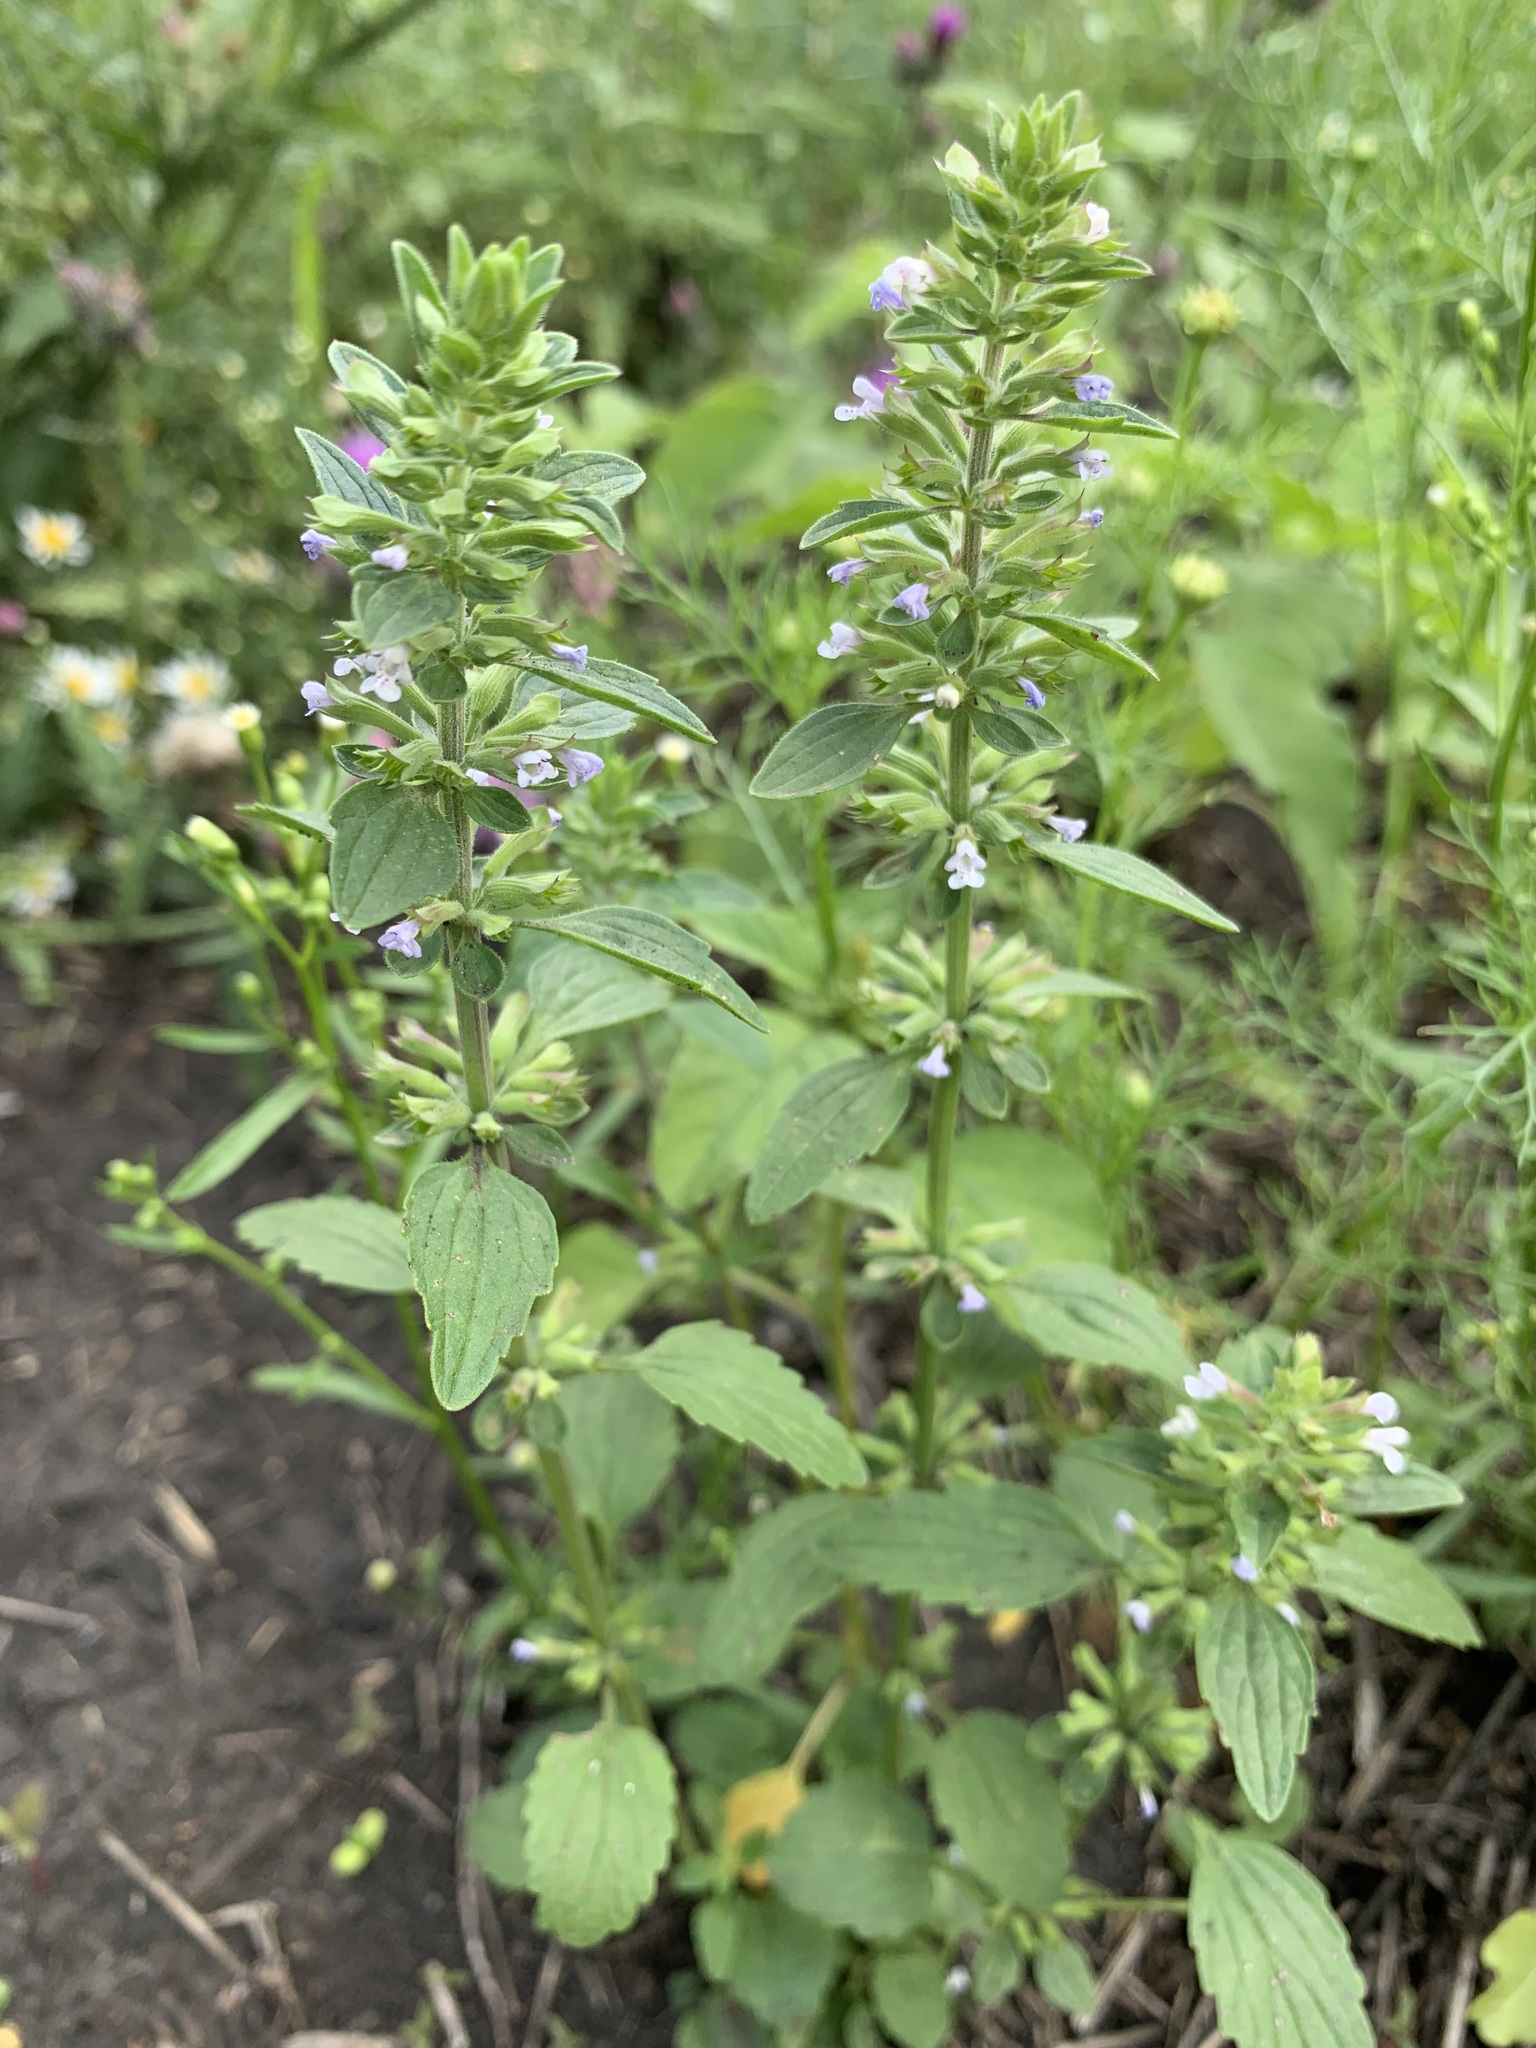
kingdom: Plantae
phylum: Tracheophyta
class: Magnoliopsida
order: Lamiales
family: Lamiaceae
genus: Dracocephalum
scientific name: Dracocephalum thymiflorum
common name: Thymeleaf dragonhead
